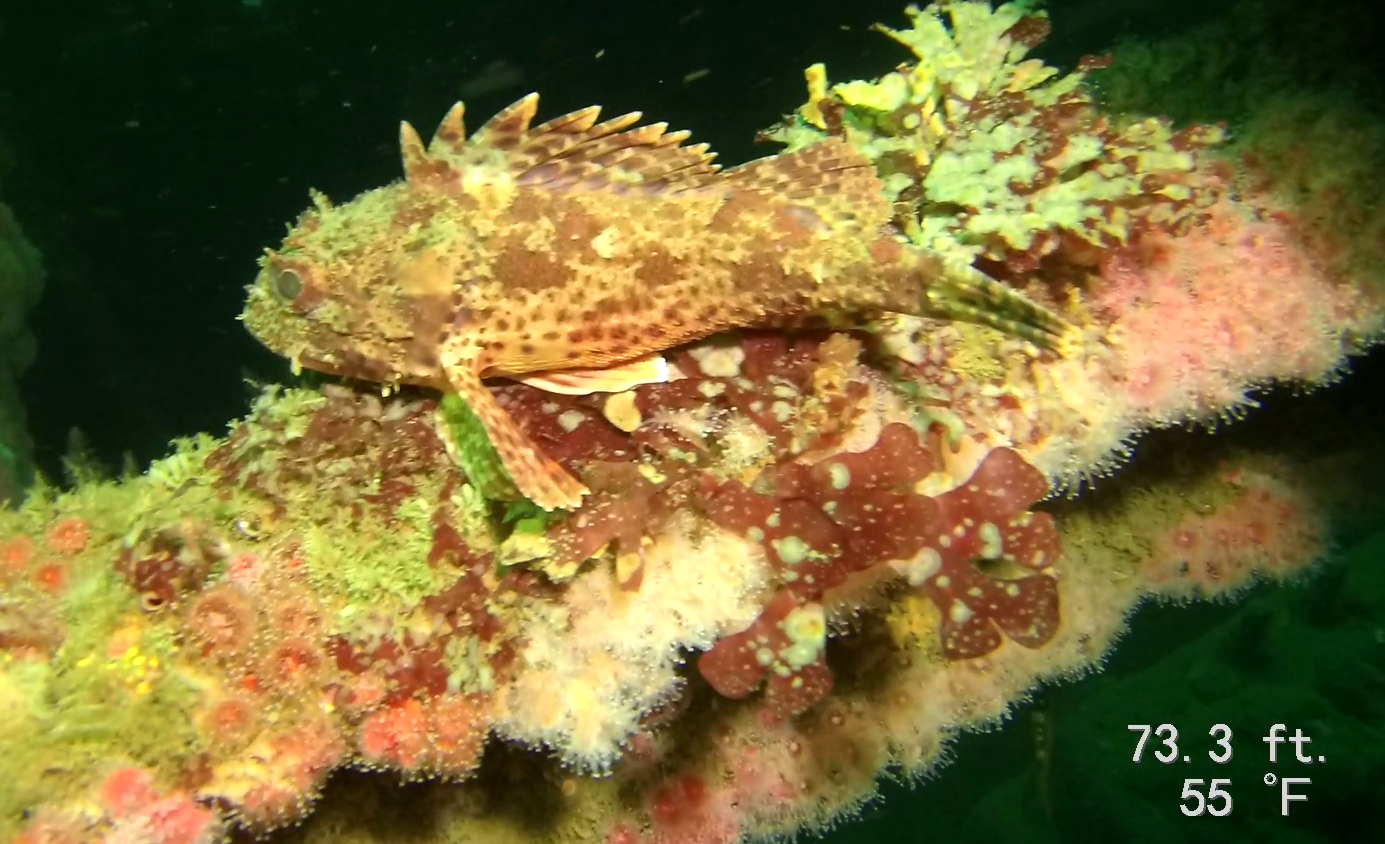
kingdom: Animalia
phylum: Chordata
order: Scorpaeniformes
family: Scorpaenidae
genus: Scorpaena
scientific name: Scorpaena guttata
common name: California scorpionfish
